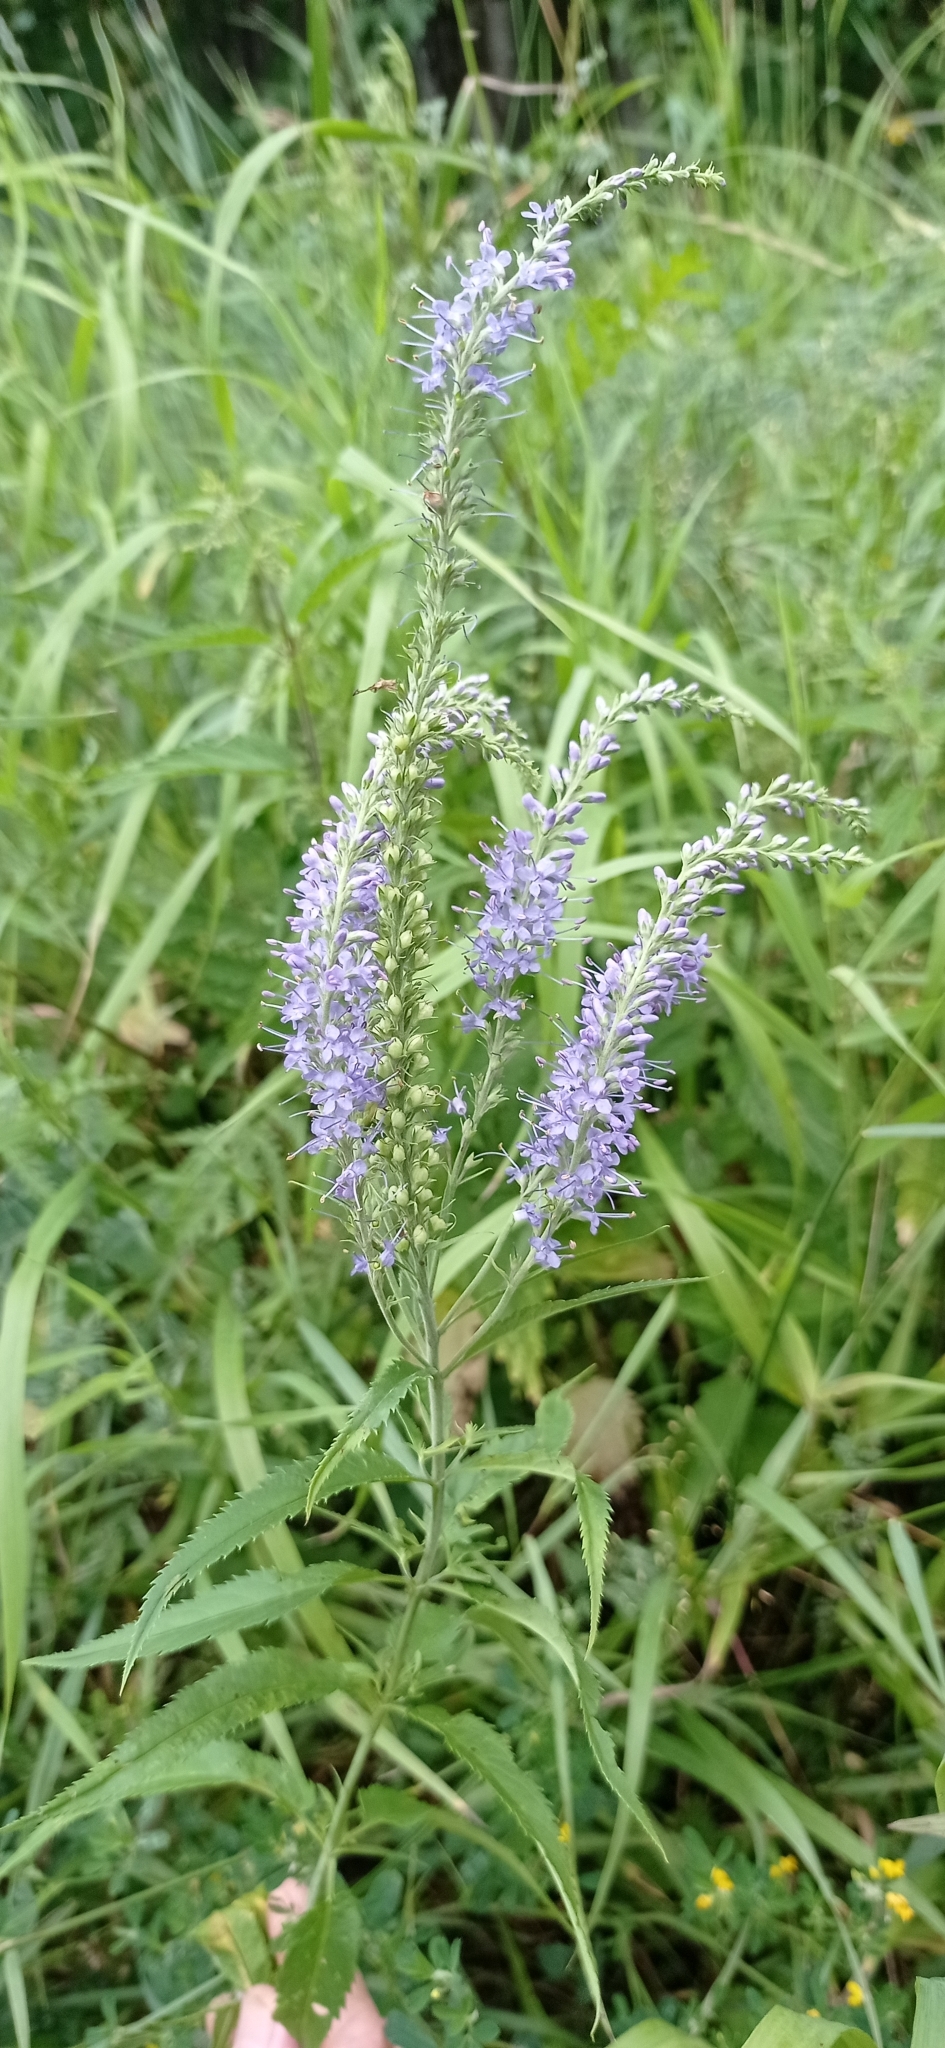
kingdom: Plantae
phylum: Tracheophyta
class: Magnoliopsida
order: Lamiales
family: Plantaginaceae
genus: Veronica
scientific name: Veronica longifolia
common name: Garden speedwell
